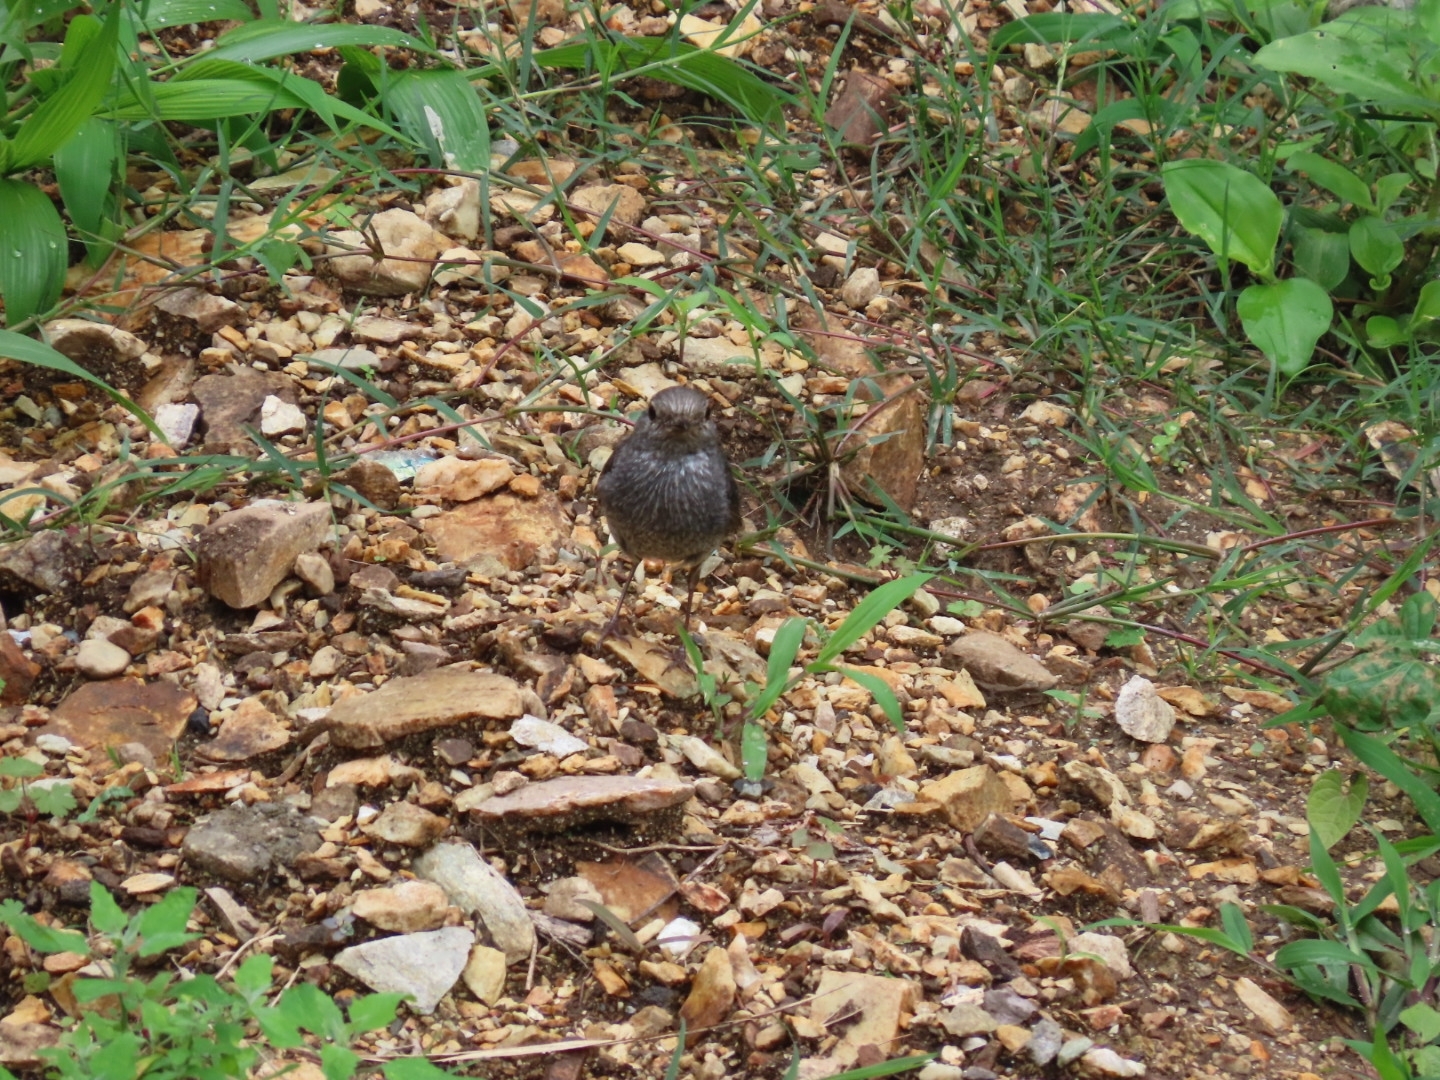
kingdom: Animalia
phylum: Chordata
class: Aves
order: Passeriformes
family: Muscicapidae
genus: Phoenicurus
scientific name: Phoenicurus fuliginosus
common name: Plumbeous water redstart
